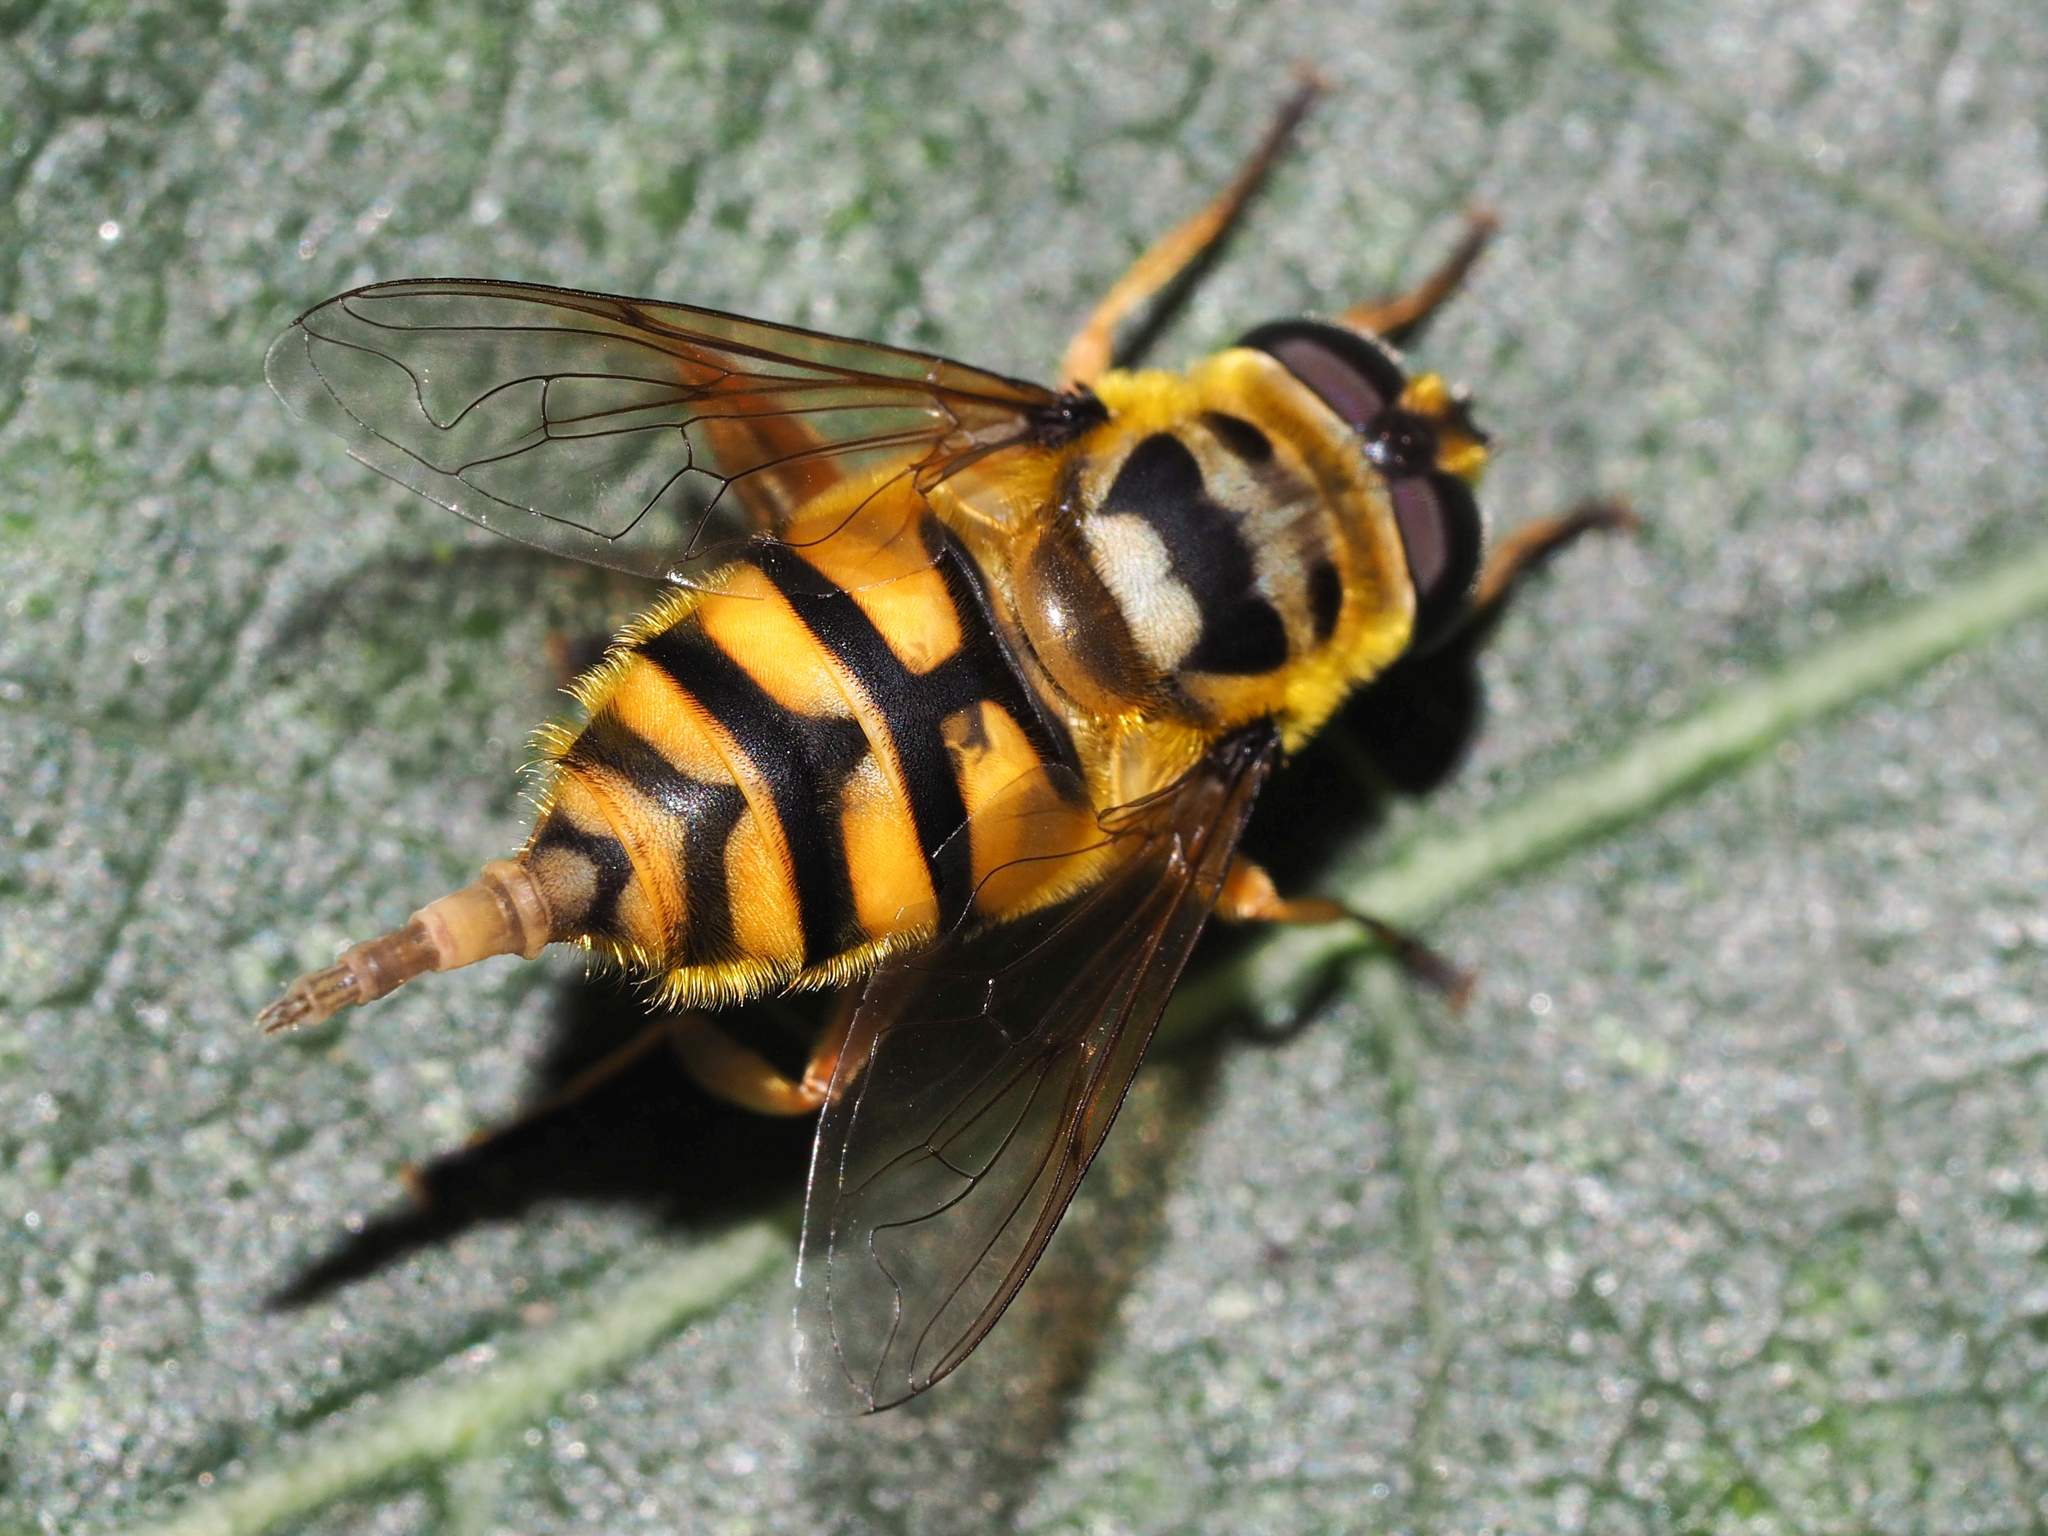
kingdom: Animalia
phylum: Arthropoda
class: Insecta
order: Diptera
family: Syrphidae
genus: Myathropa
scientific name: Myathropa florea
